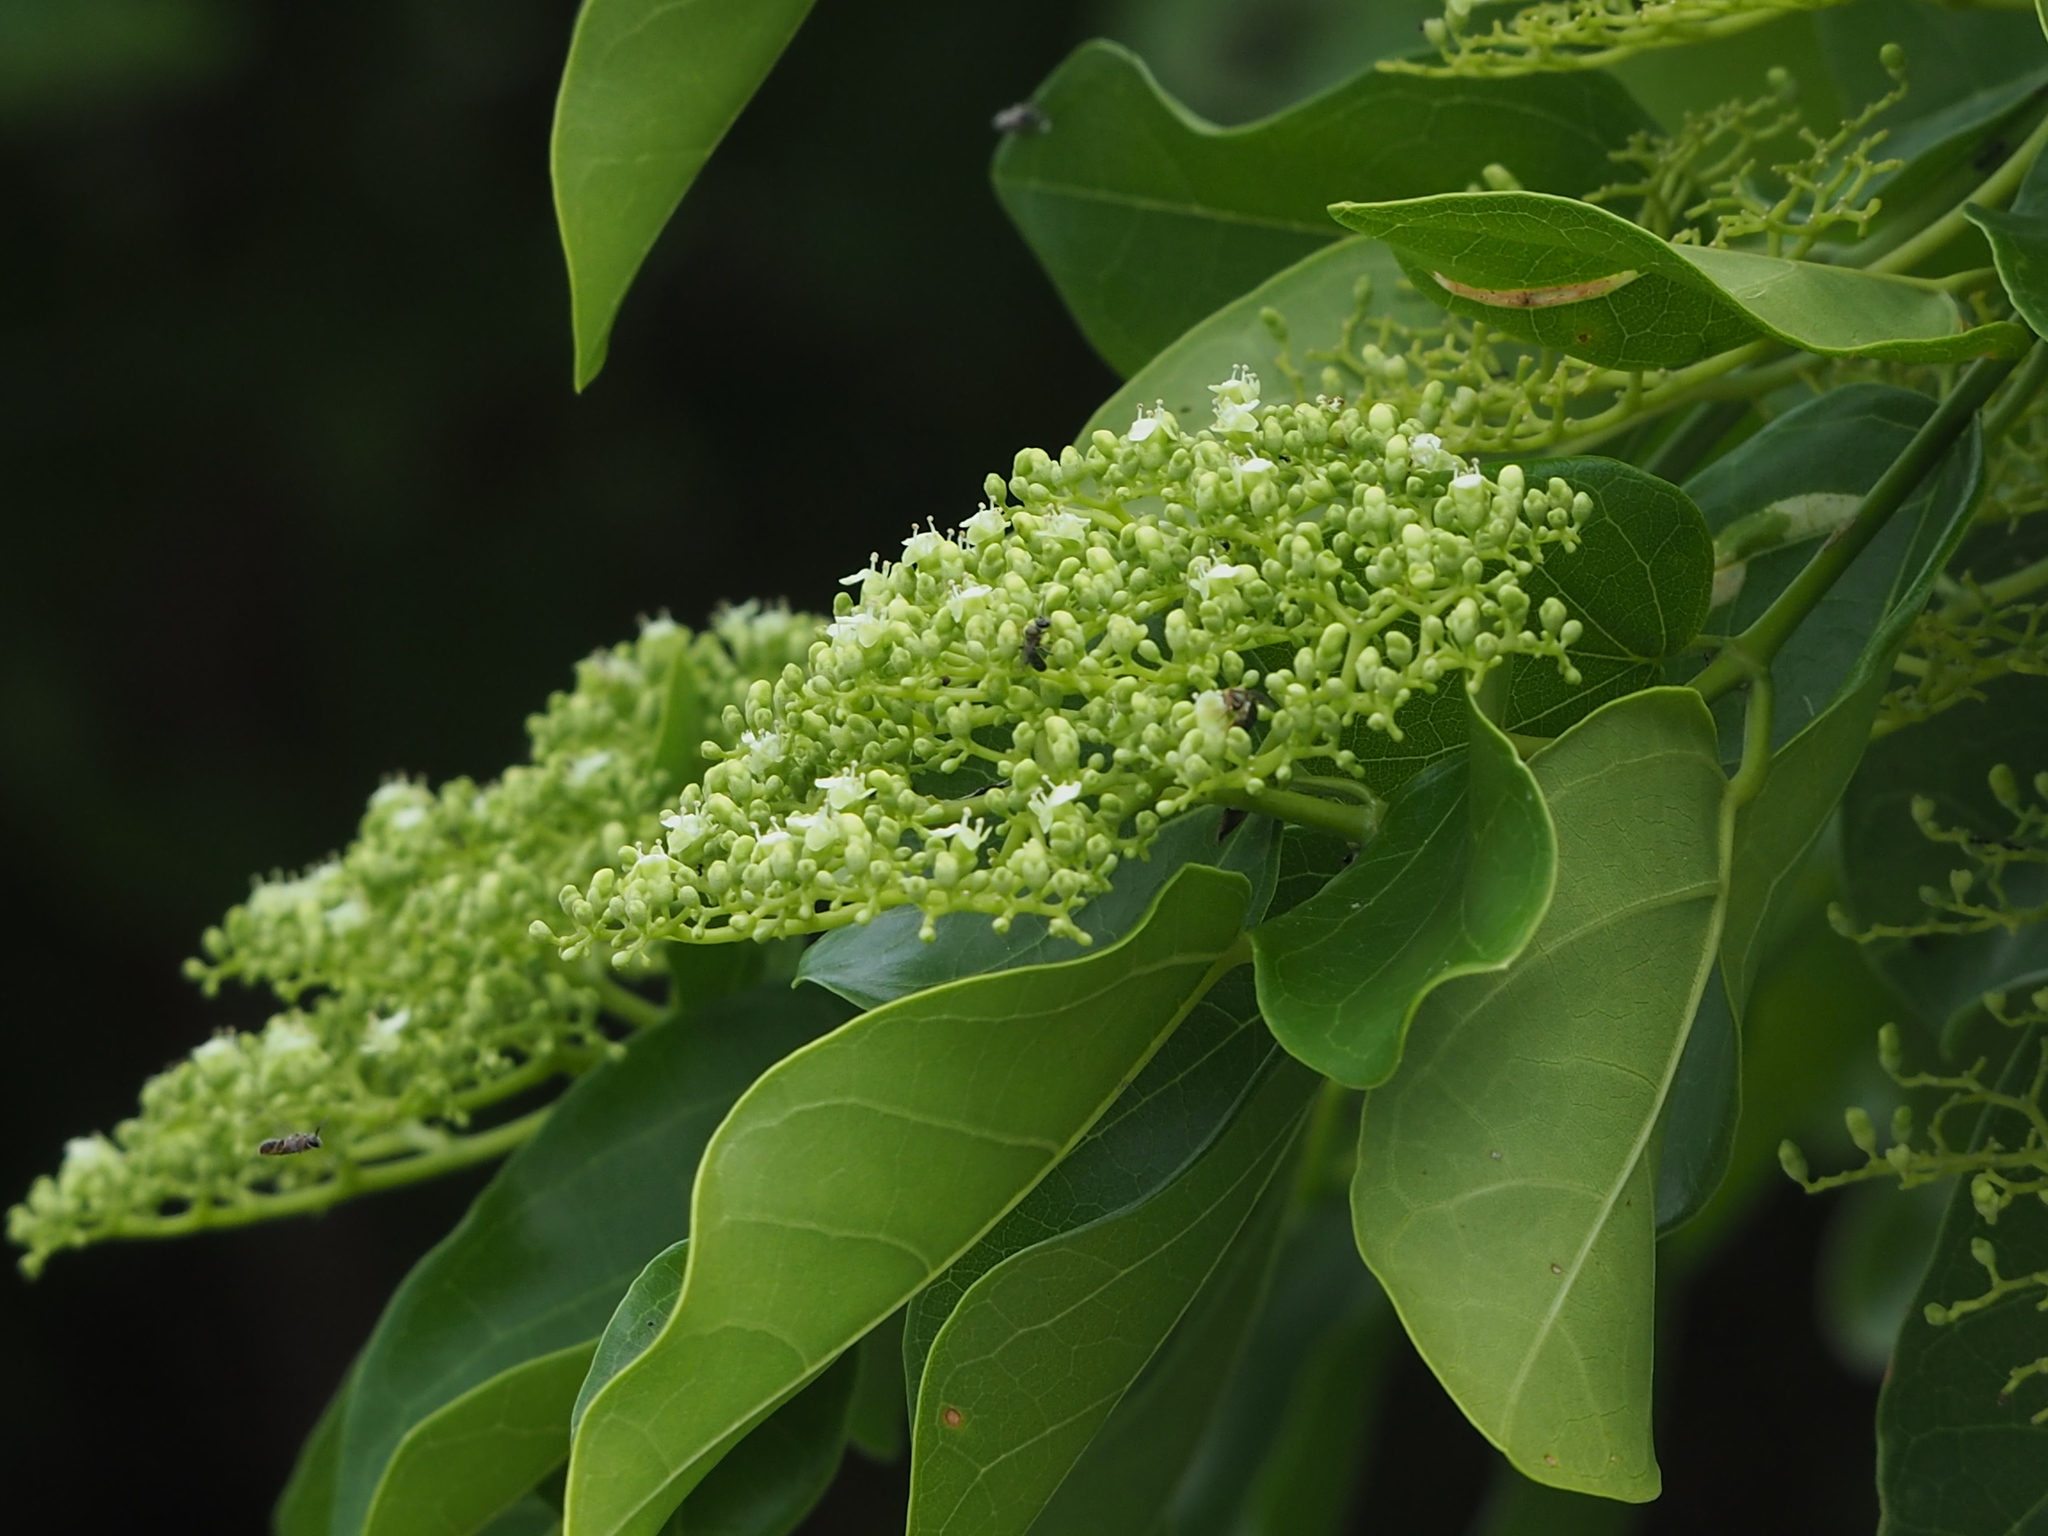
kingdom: Plantae
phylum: Tracheophyta
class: Magnoliopsida
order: Lamiales
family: Lamiaceae
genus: Premna
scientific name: Premna serratifolia
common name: Bastard guelder
